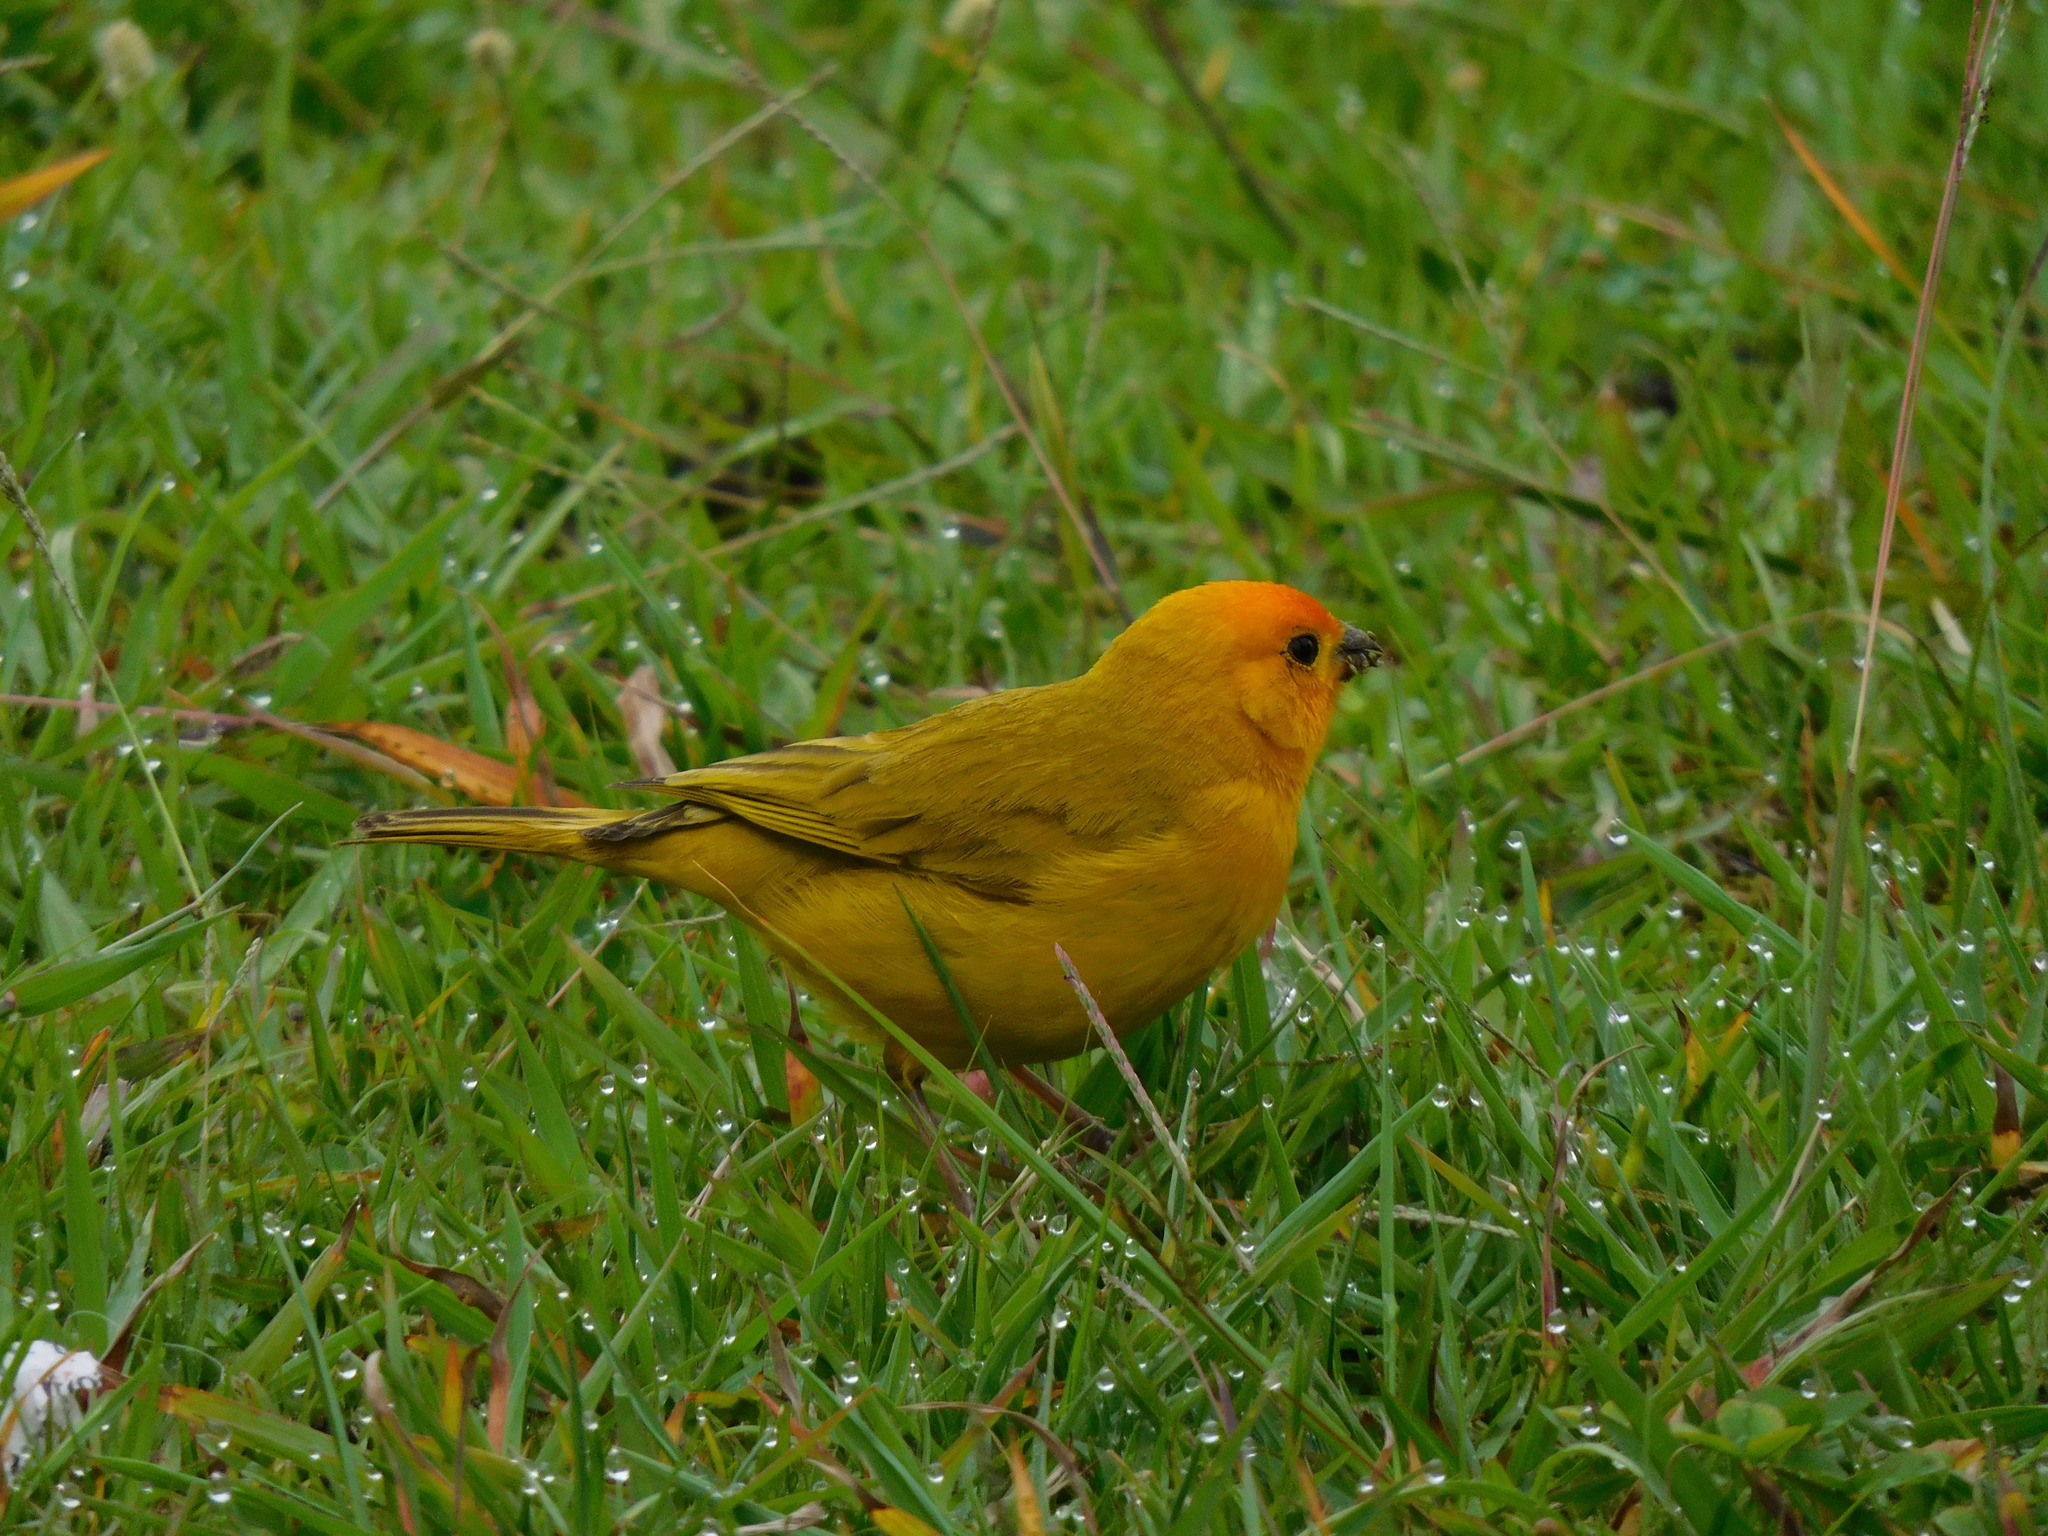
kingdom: Animalia
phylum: Chordata
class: Aves
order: Passeriformes
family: Thraupidae
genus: Sicalis
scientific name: Sicalis flaveola
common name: Saffron finch
